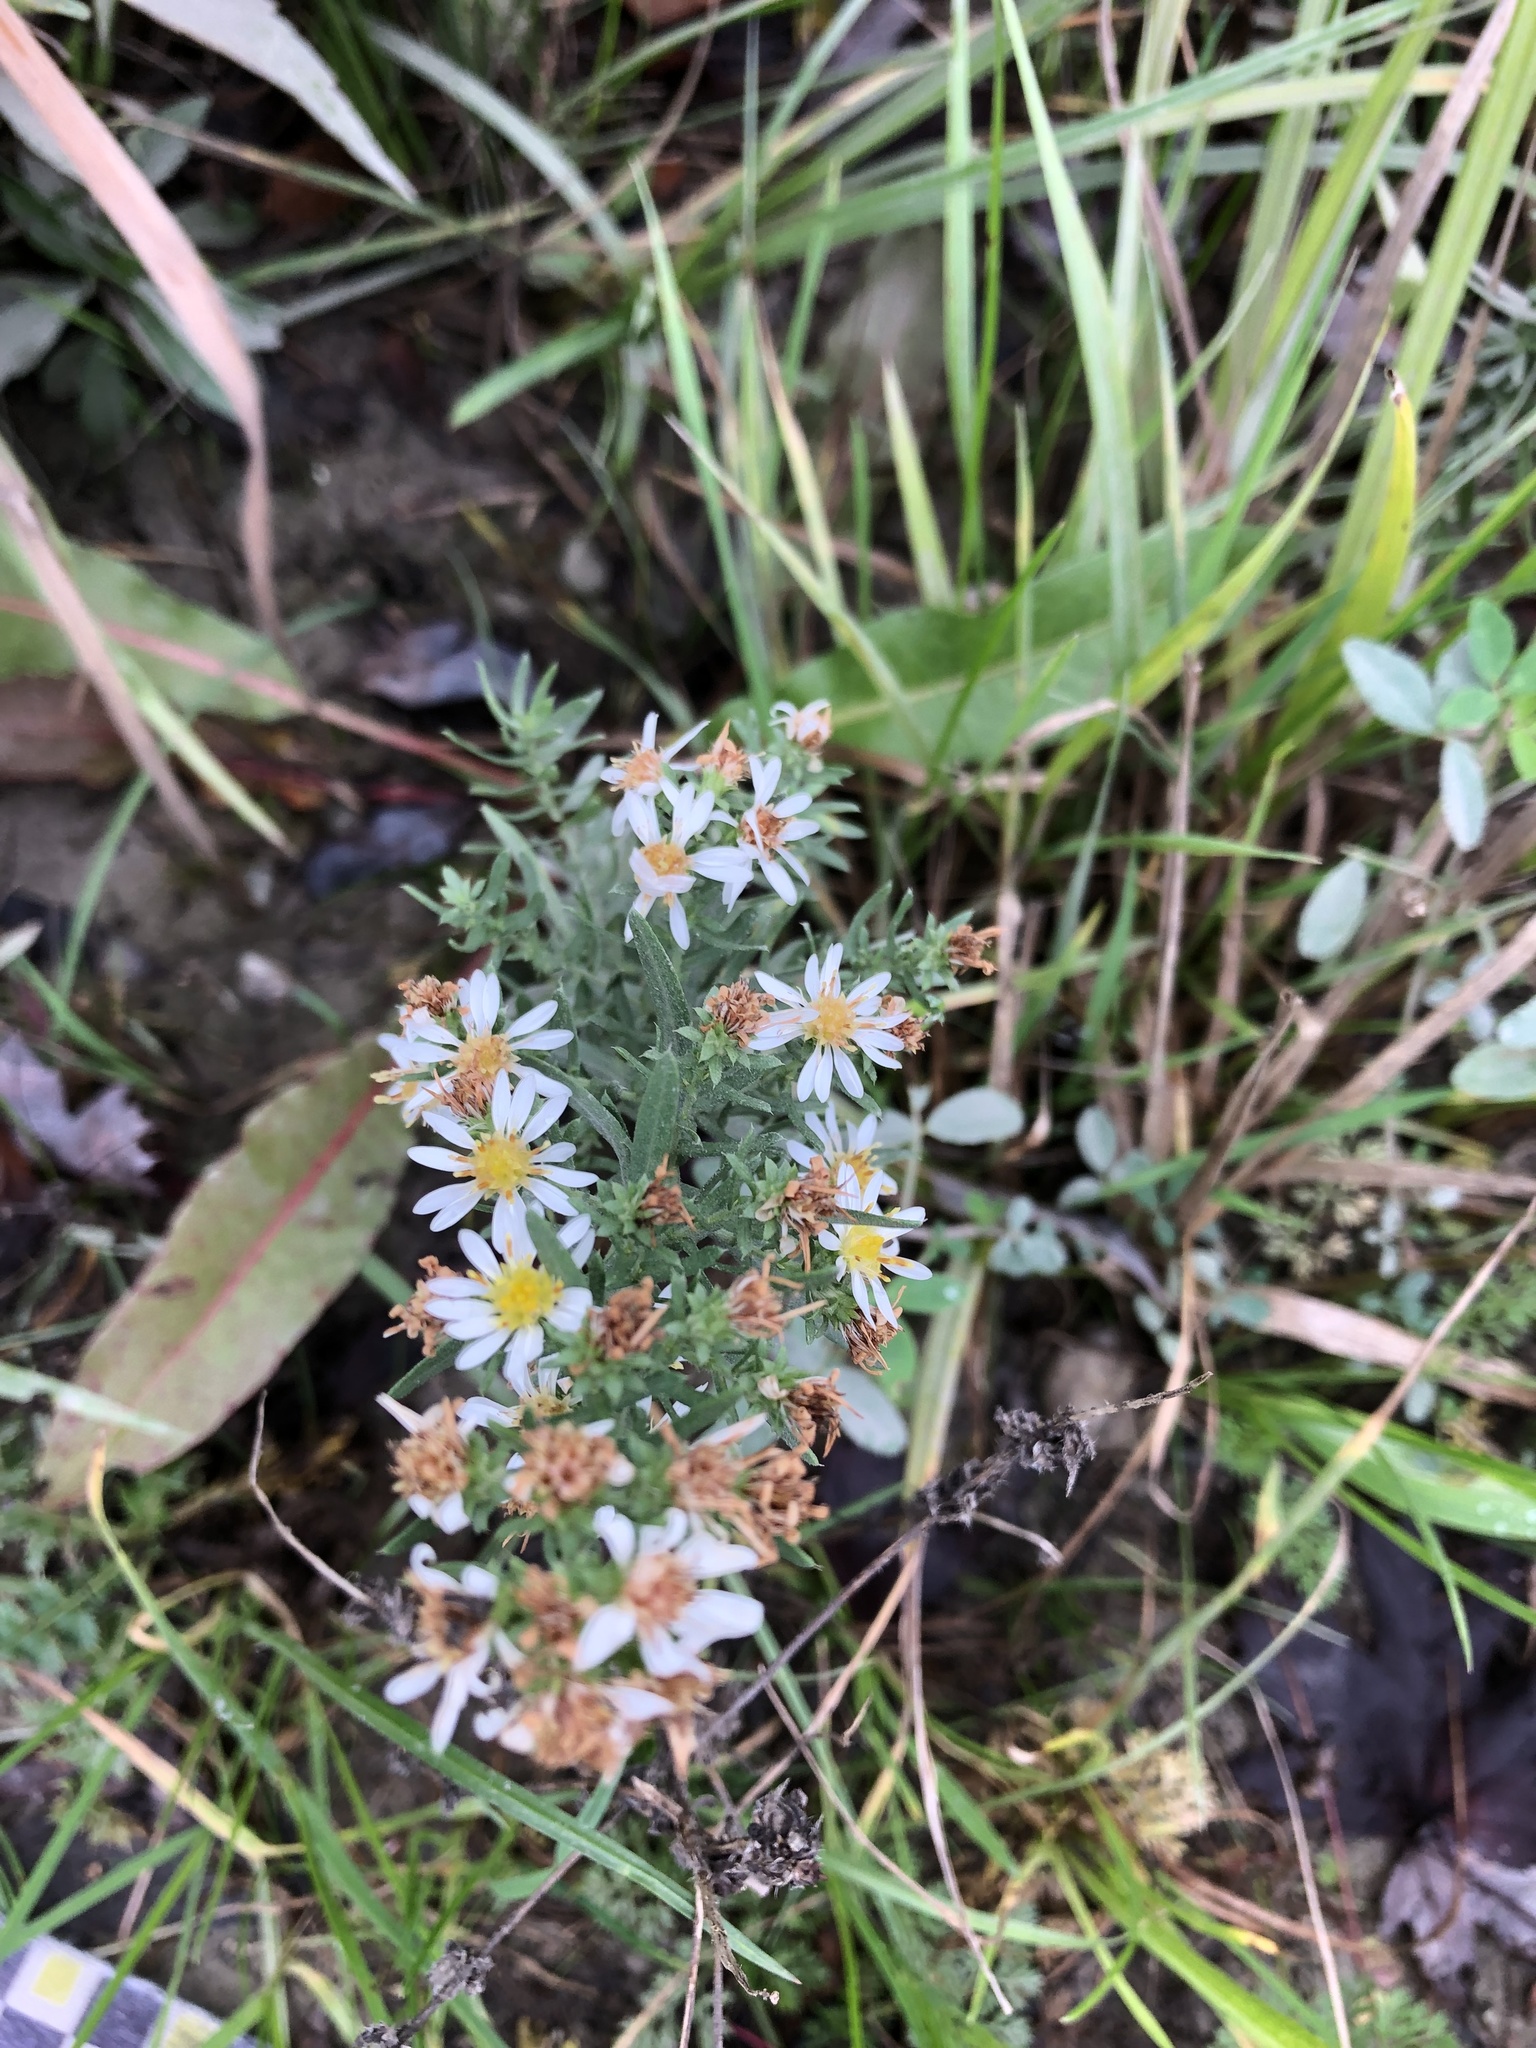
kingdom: Plantae
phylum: Tracheophyta
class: Magnoliopsida
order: Asterales
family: Asteraceae
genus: Symphyotrichum
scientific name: Symphyotrichum ericoides
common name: Heath aster
